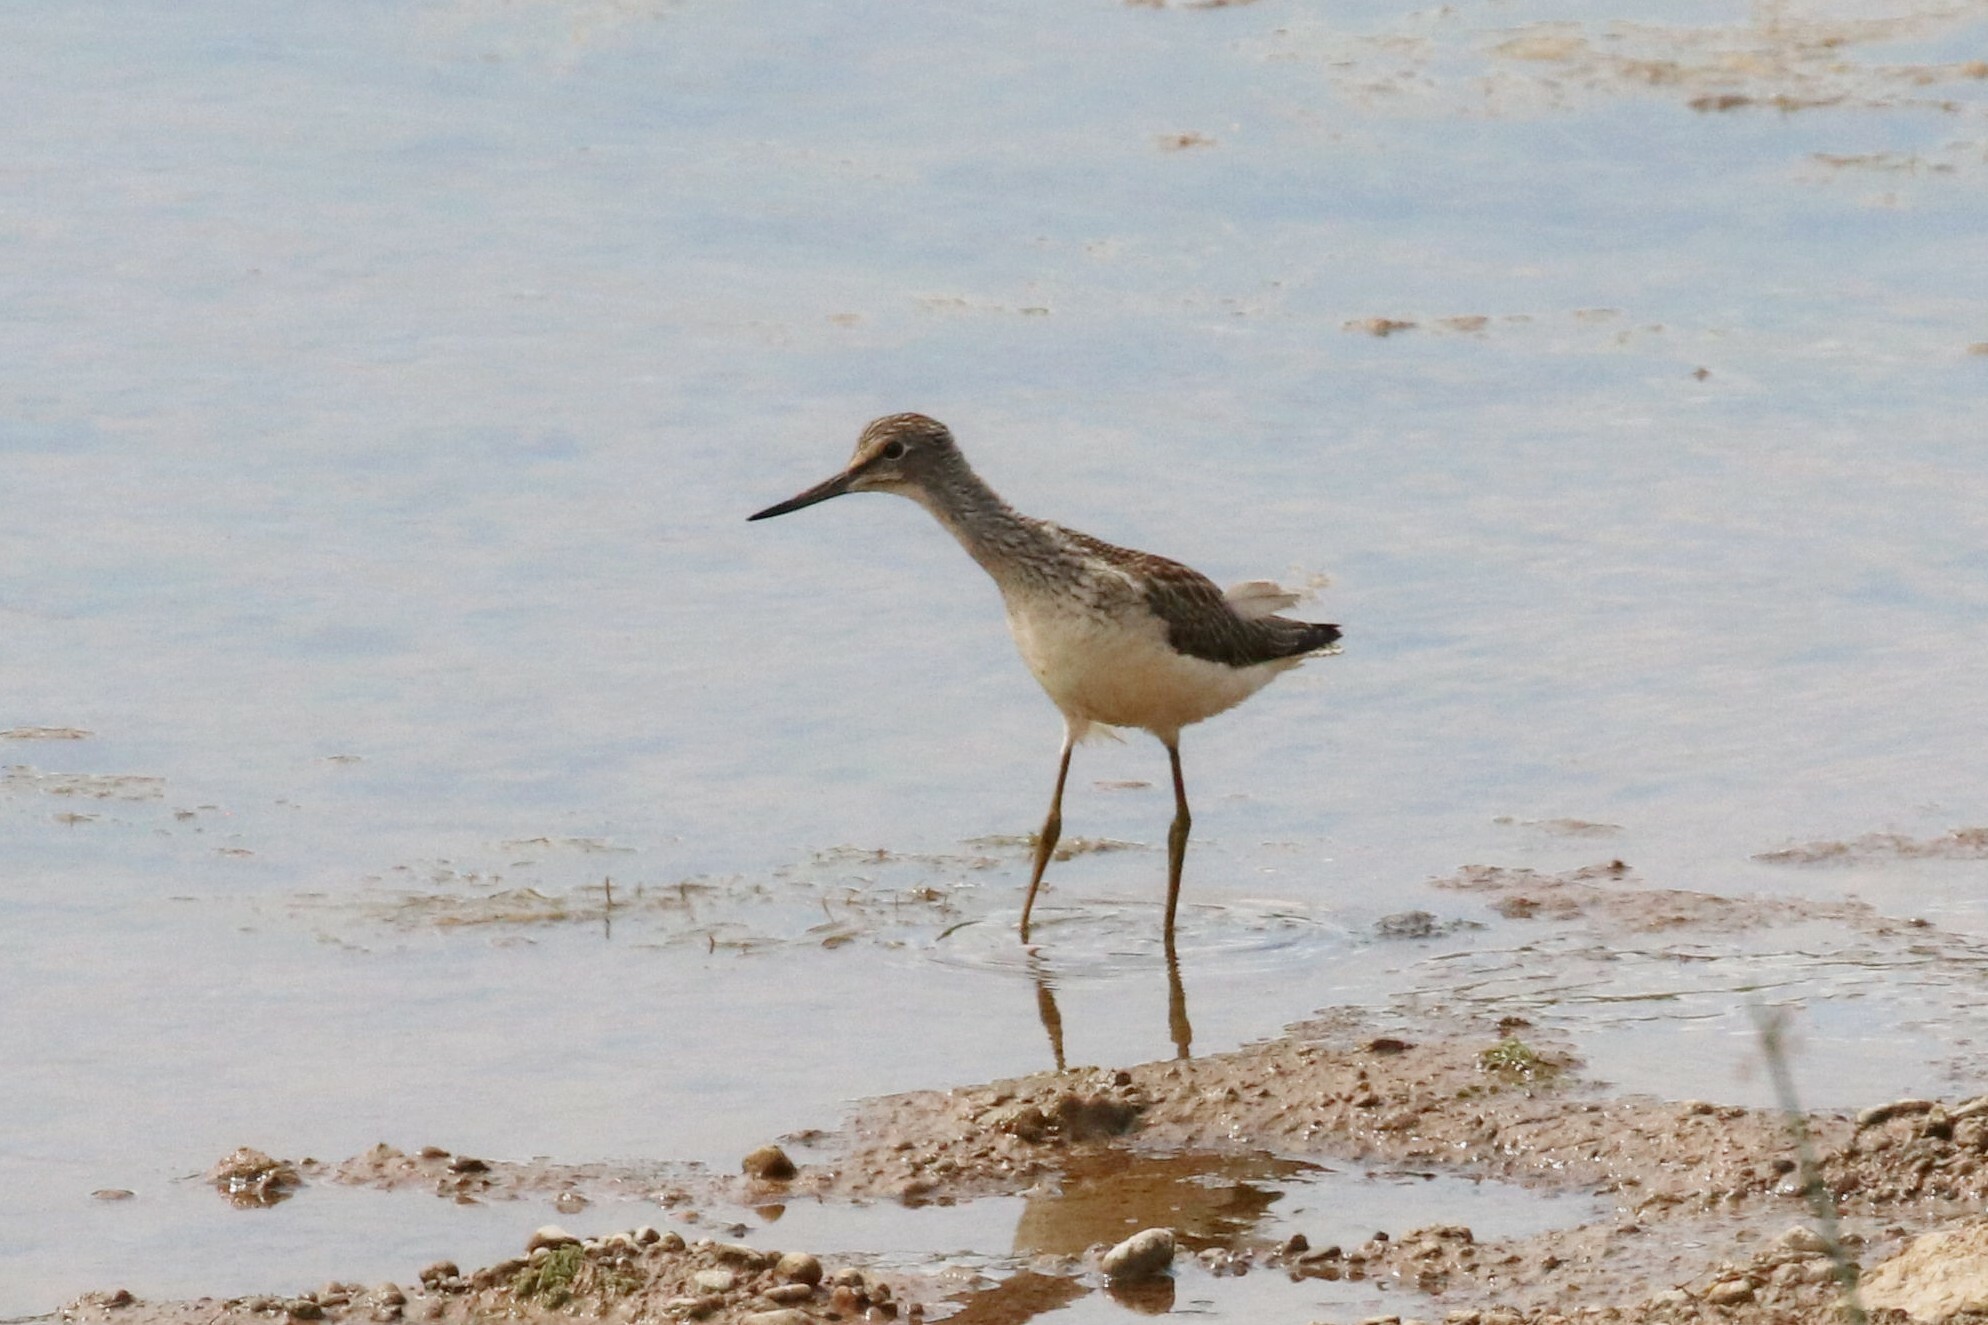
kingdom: Animalia
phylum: Chordata
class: Aves
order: Charadriiformes
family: Scolopacidae
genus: Tringa
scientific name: Tringa nebularia
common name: Common greenshank
